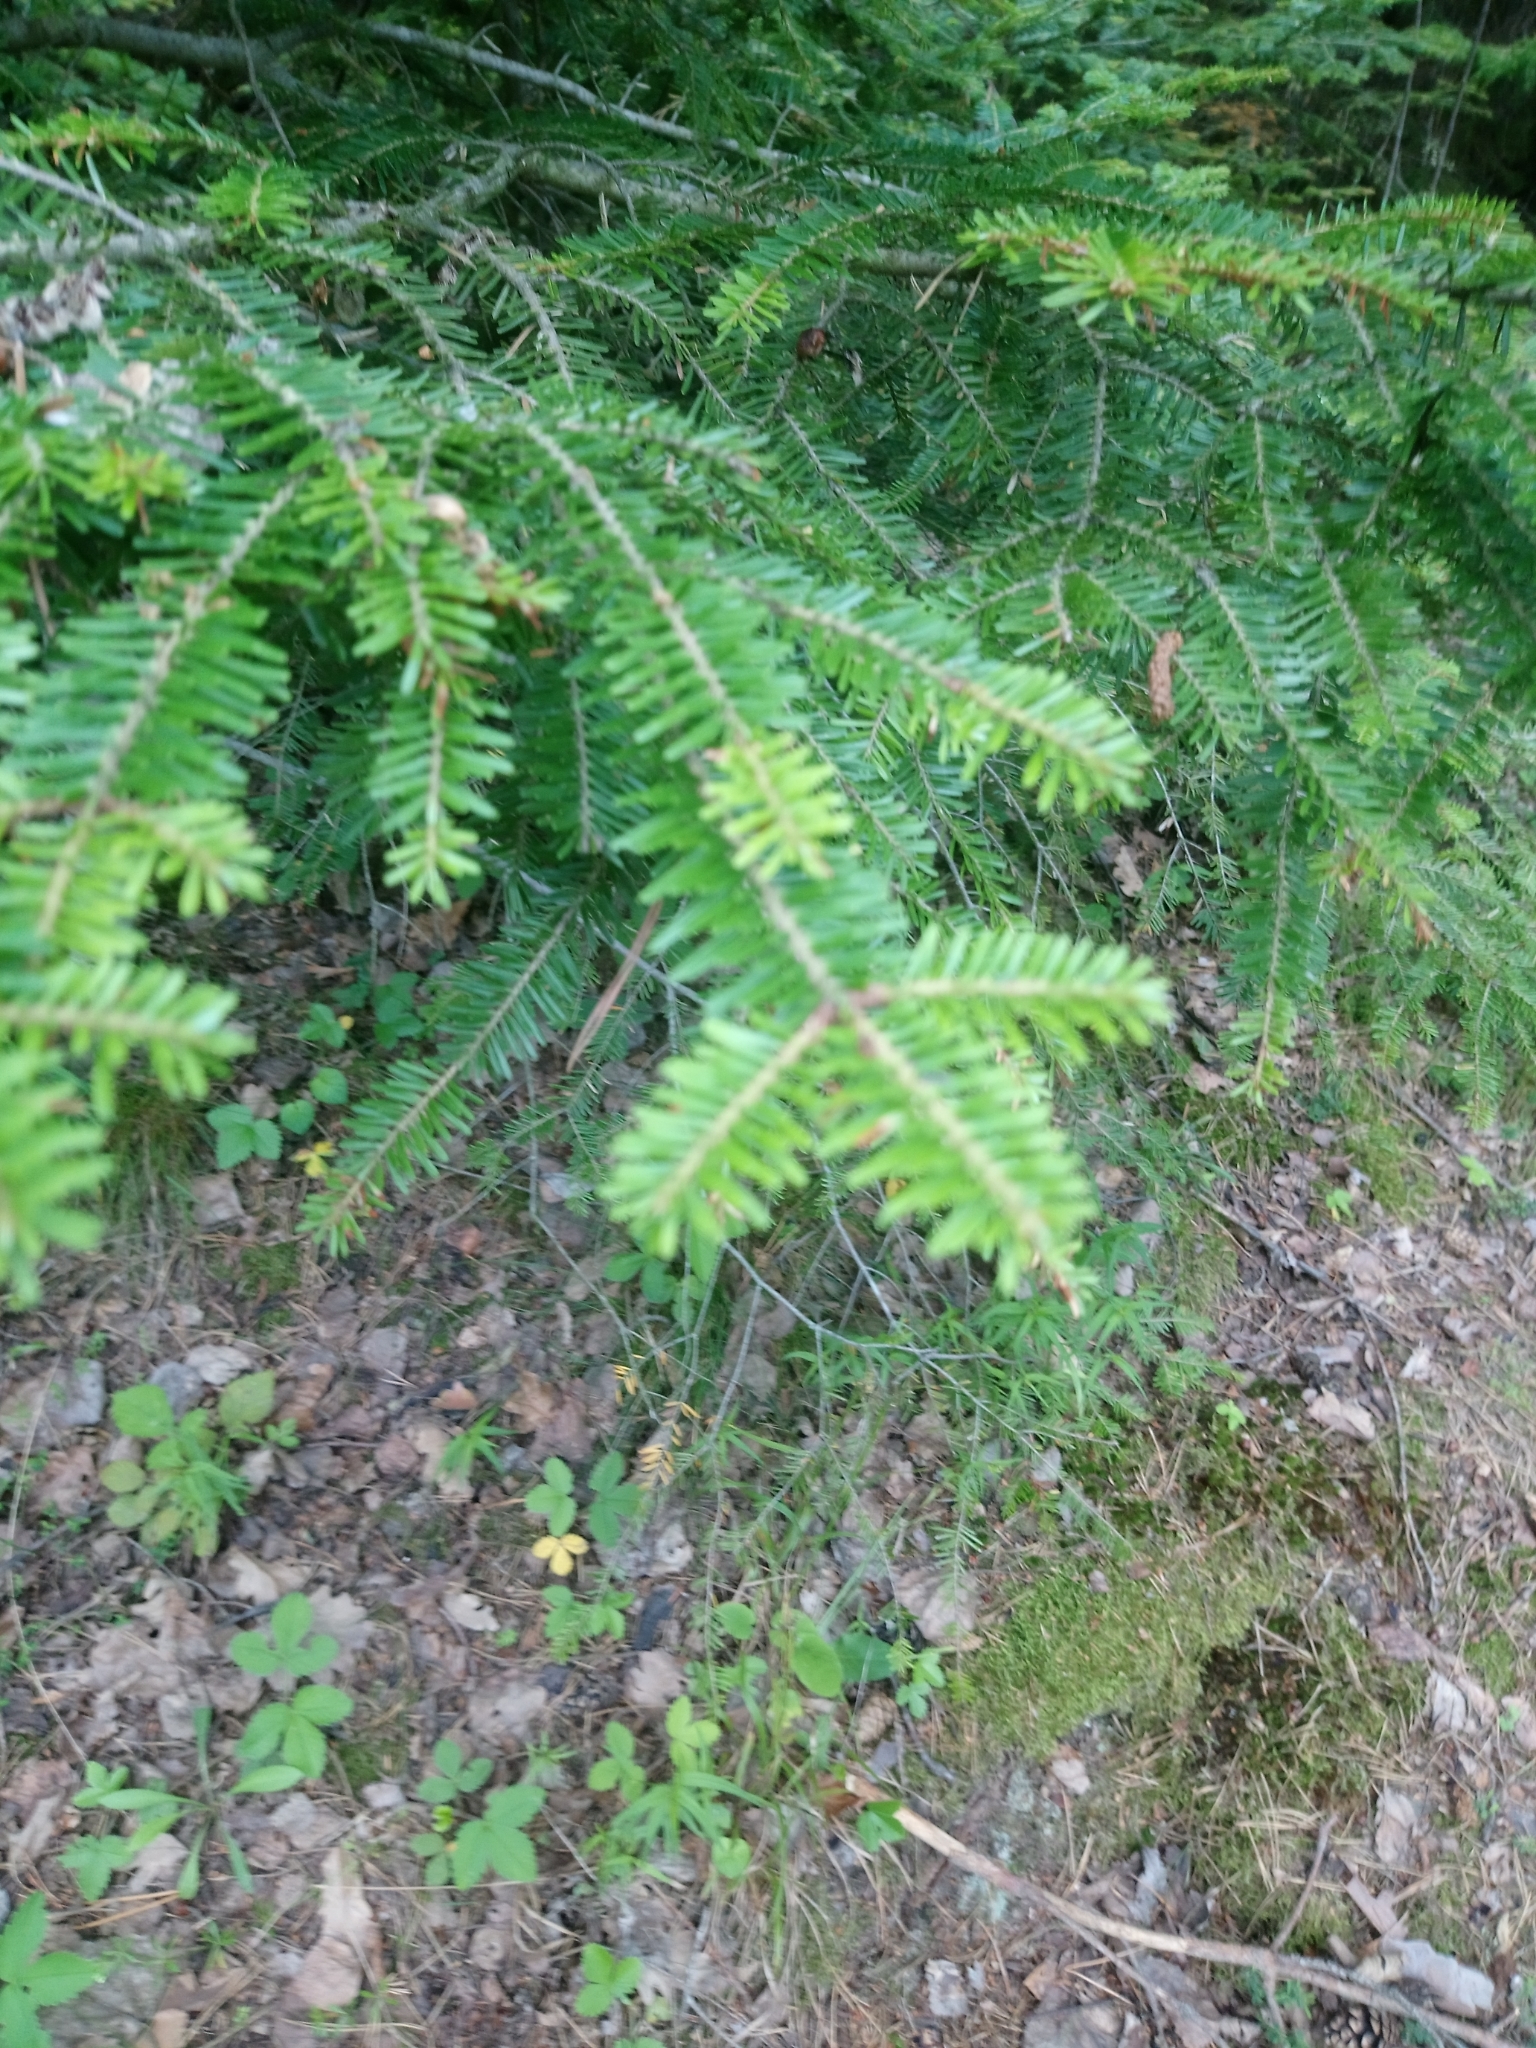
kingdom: Plantae
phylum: Tracheophyta
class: Pinopsida
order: Pinales
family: Pinaceae
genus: Abies
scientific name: Abies alba
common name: Silver fir
